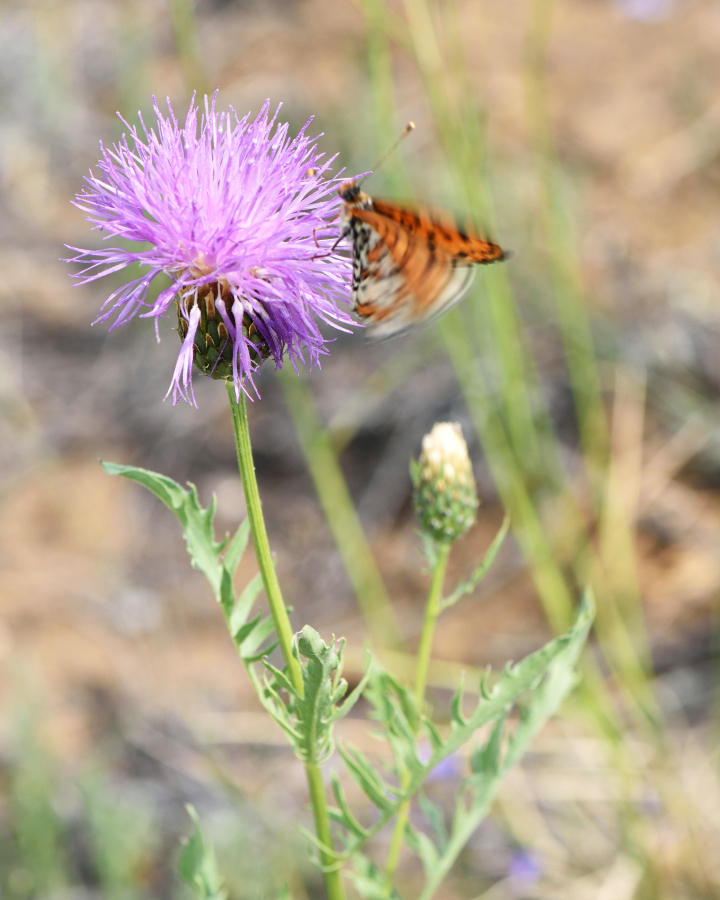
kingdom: Plantae
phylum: Tracheophyta
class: Magnoliopsida
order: Asterales
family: Asteraceae
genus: Klasea
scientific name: Klasea centauroides
